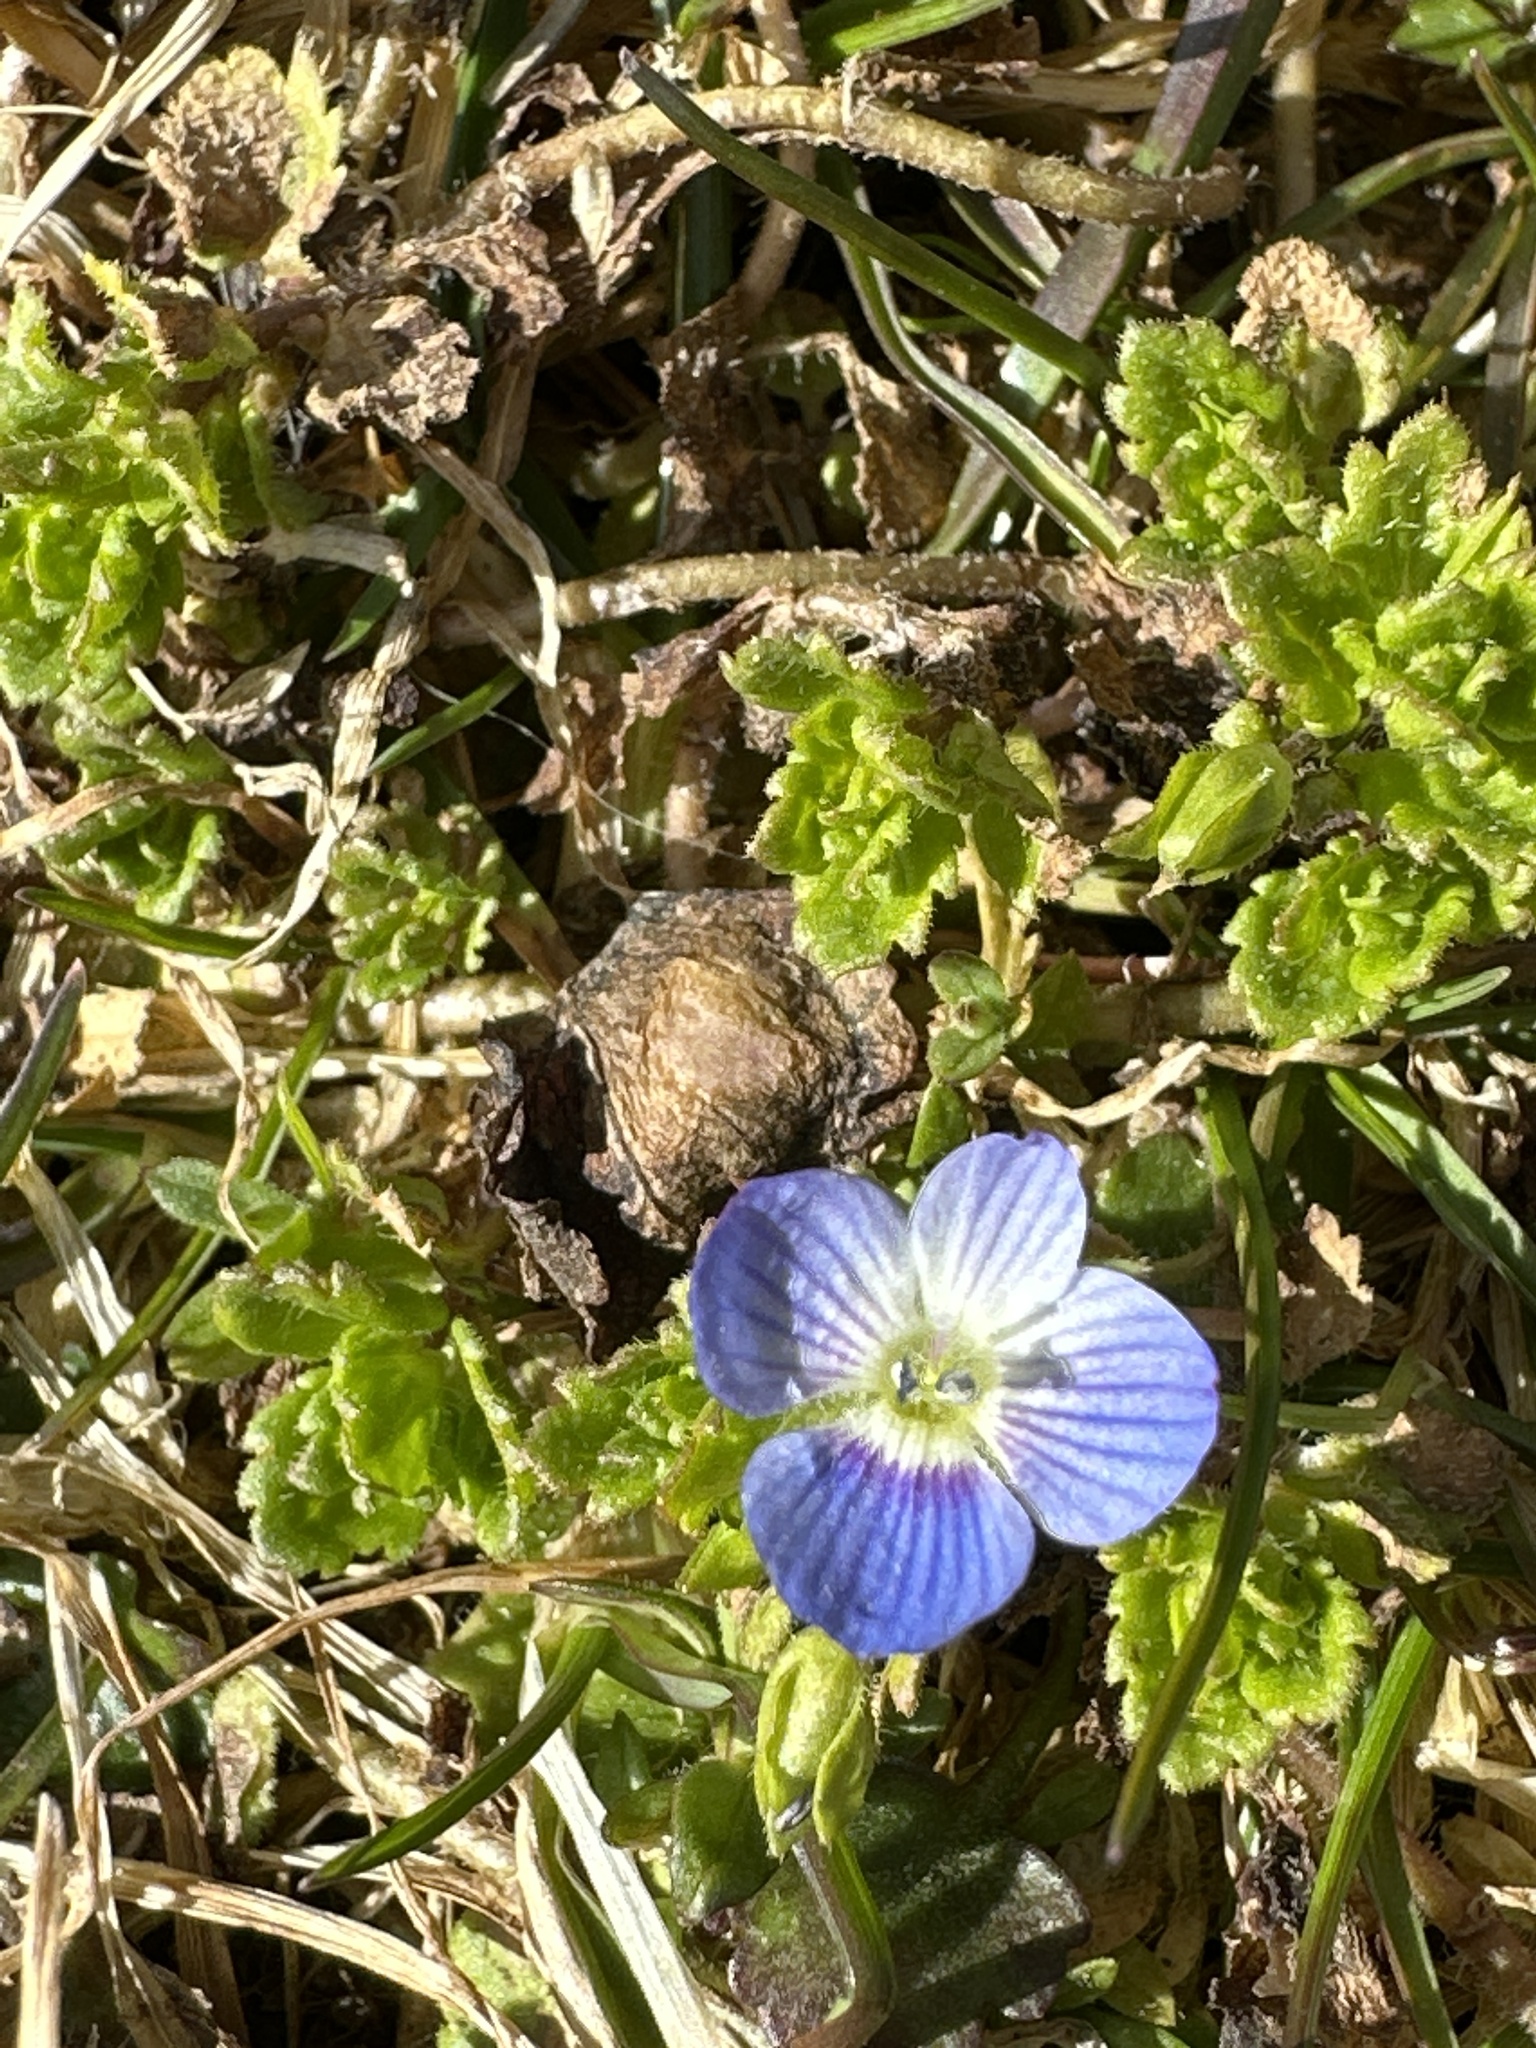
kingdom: Plantae
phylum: Tracheophyta
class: Magnoliopsida
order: Lamiales
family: Plantaginaceae
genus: Veronica
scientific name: Veronica persica
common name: Common field-speedwell
